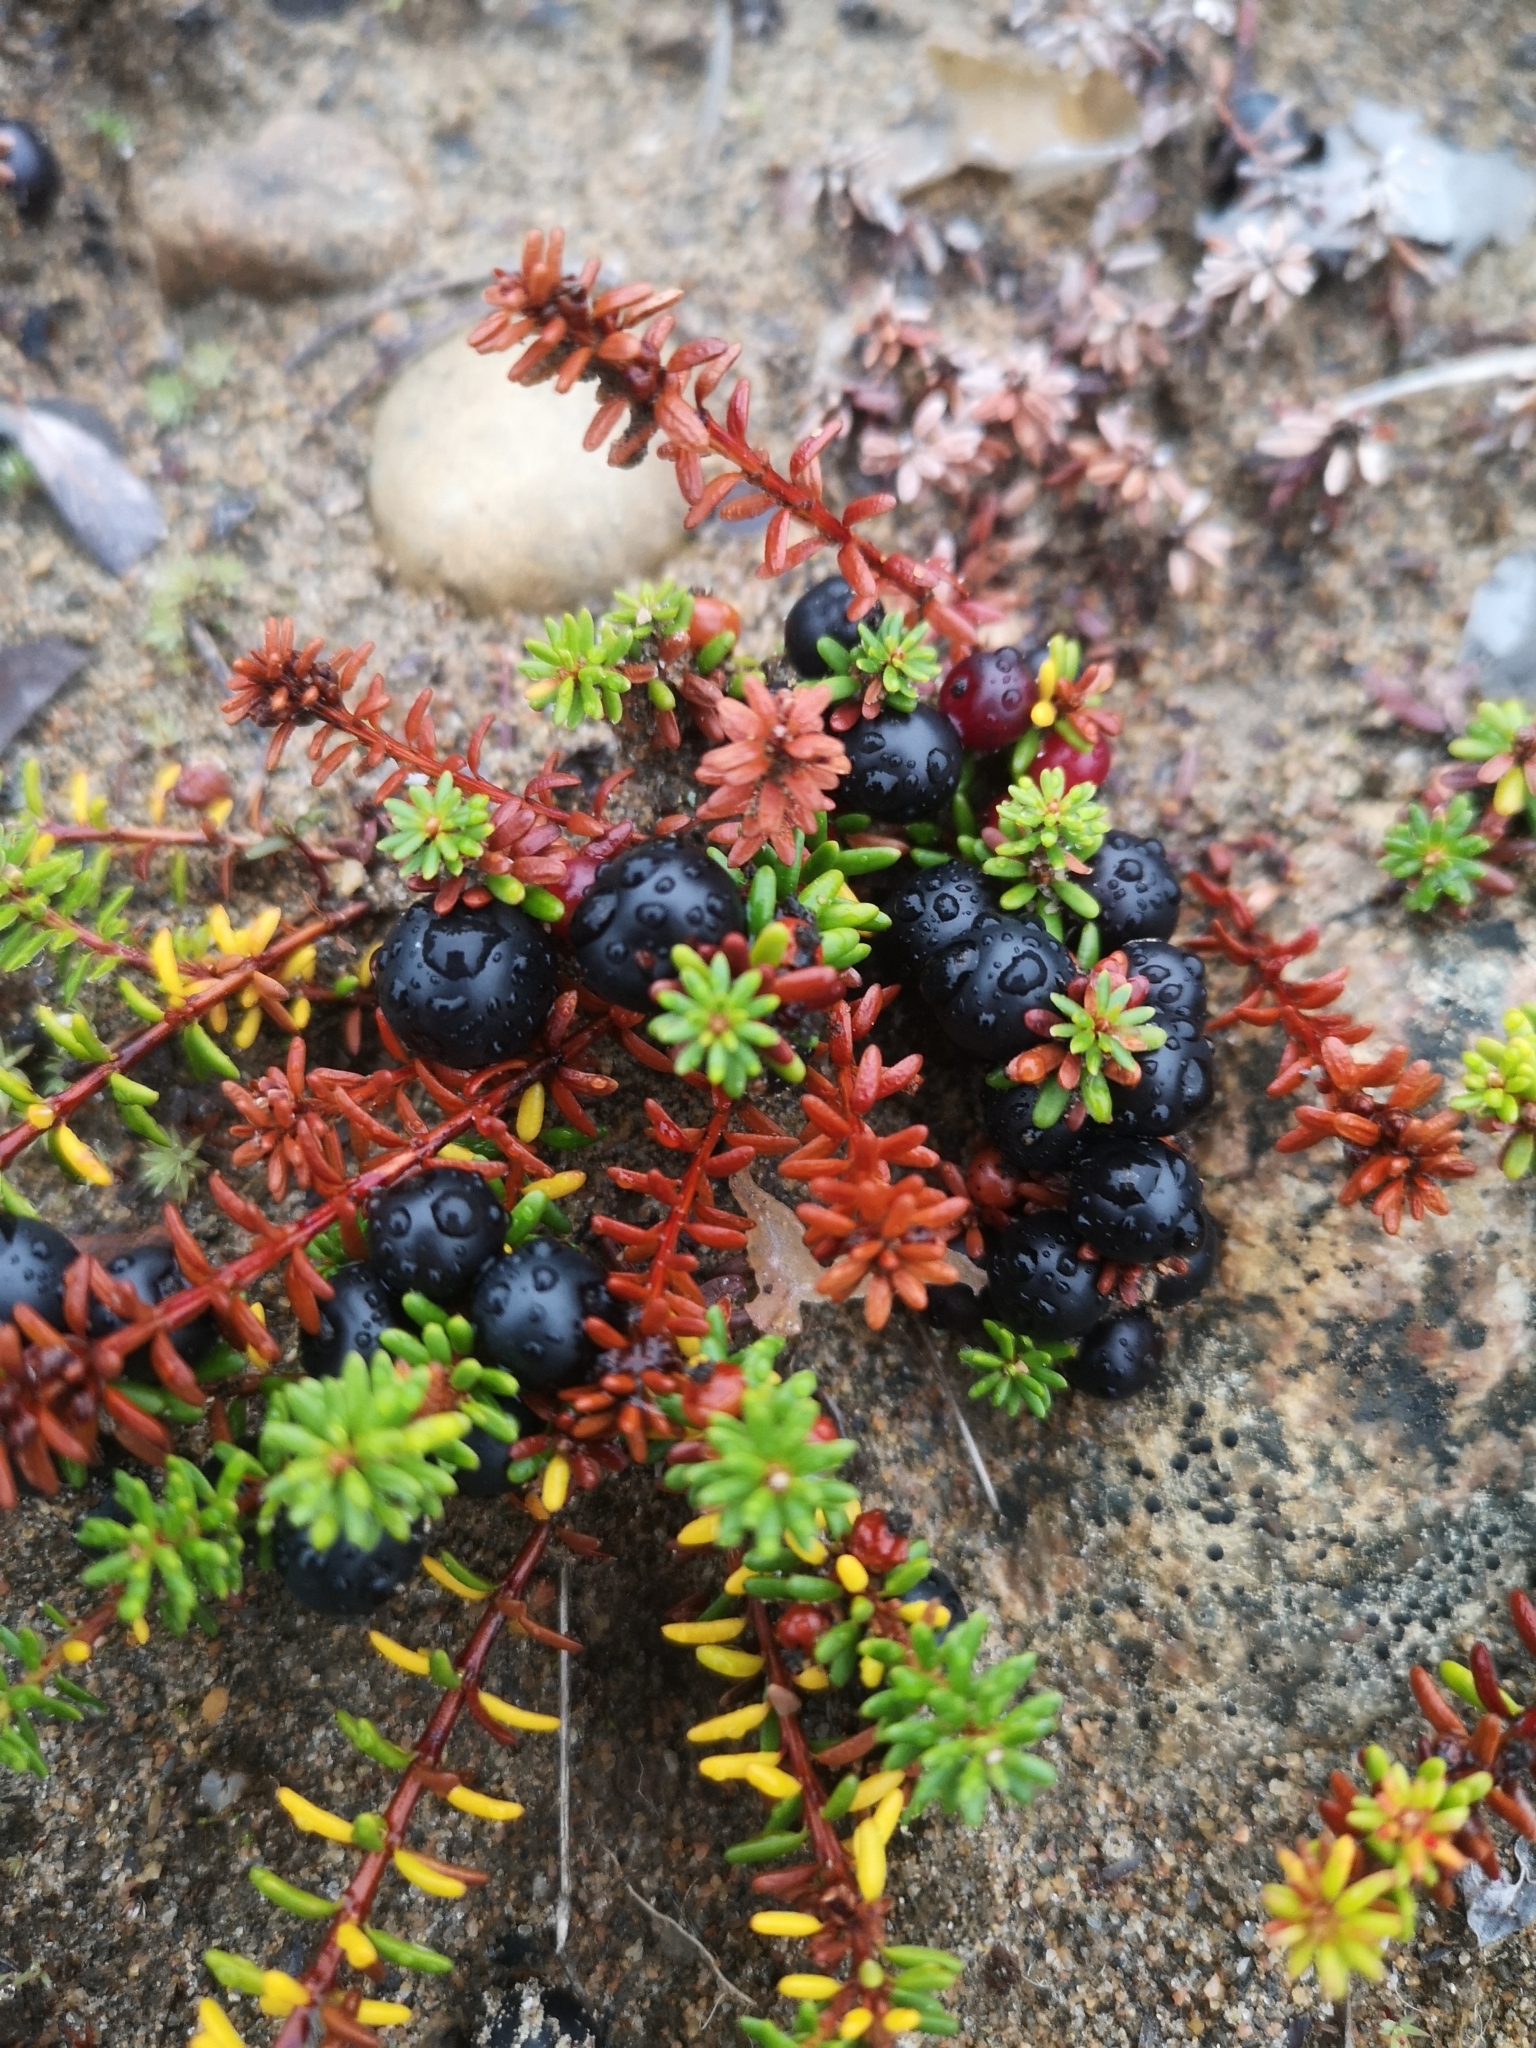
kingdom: Plantae
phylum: Tracheophyta
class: Magnoliopsida
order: Ericales
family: Ericaceae
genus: Empetrum
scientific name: Empetrum nigrum
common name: Black crowberry
